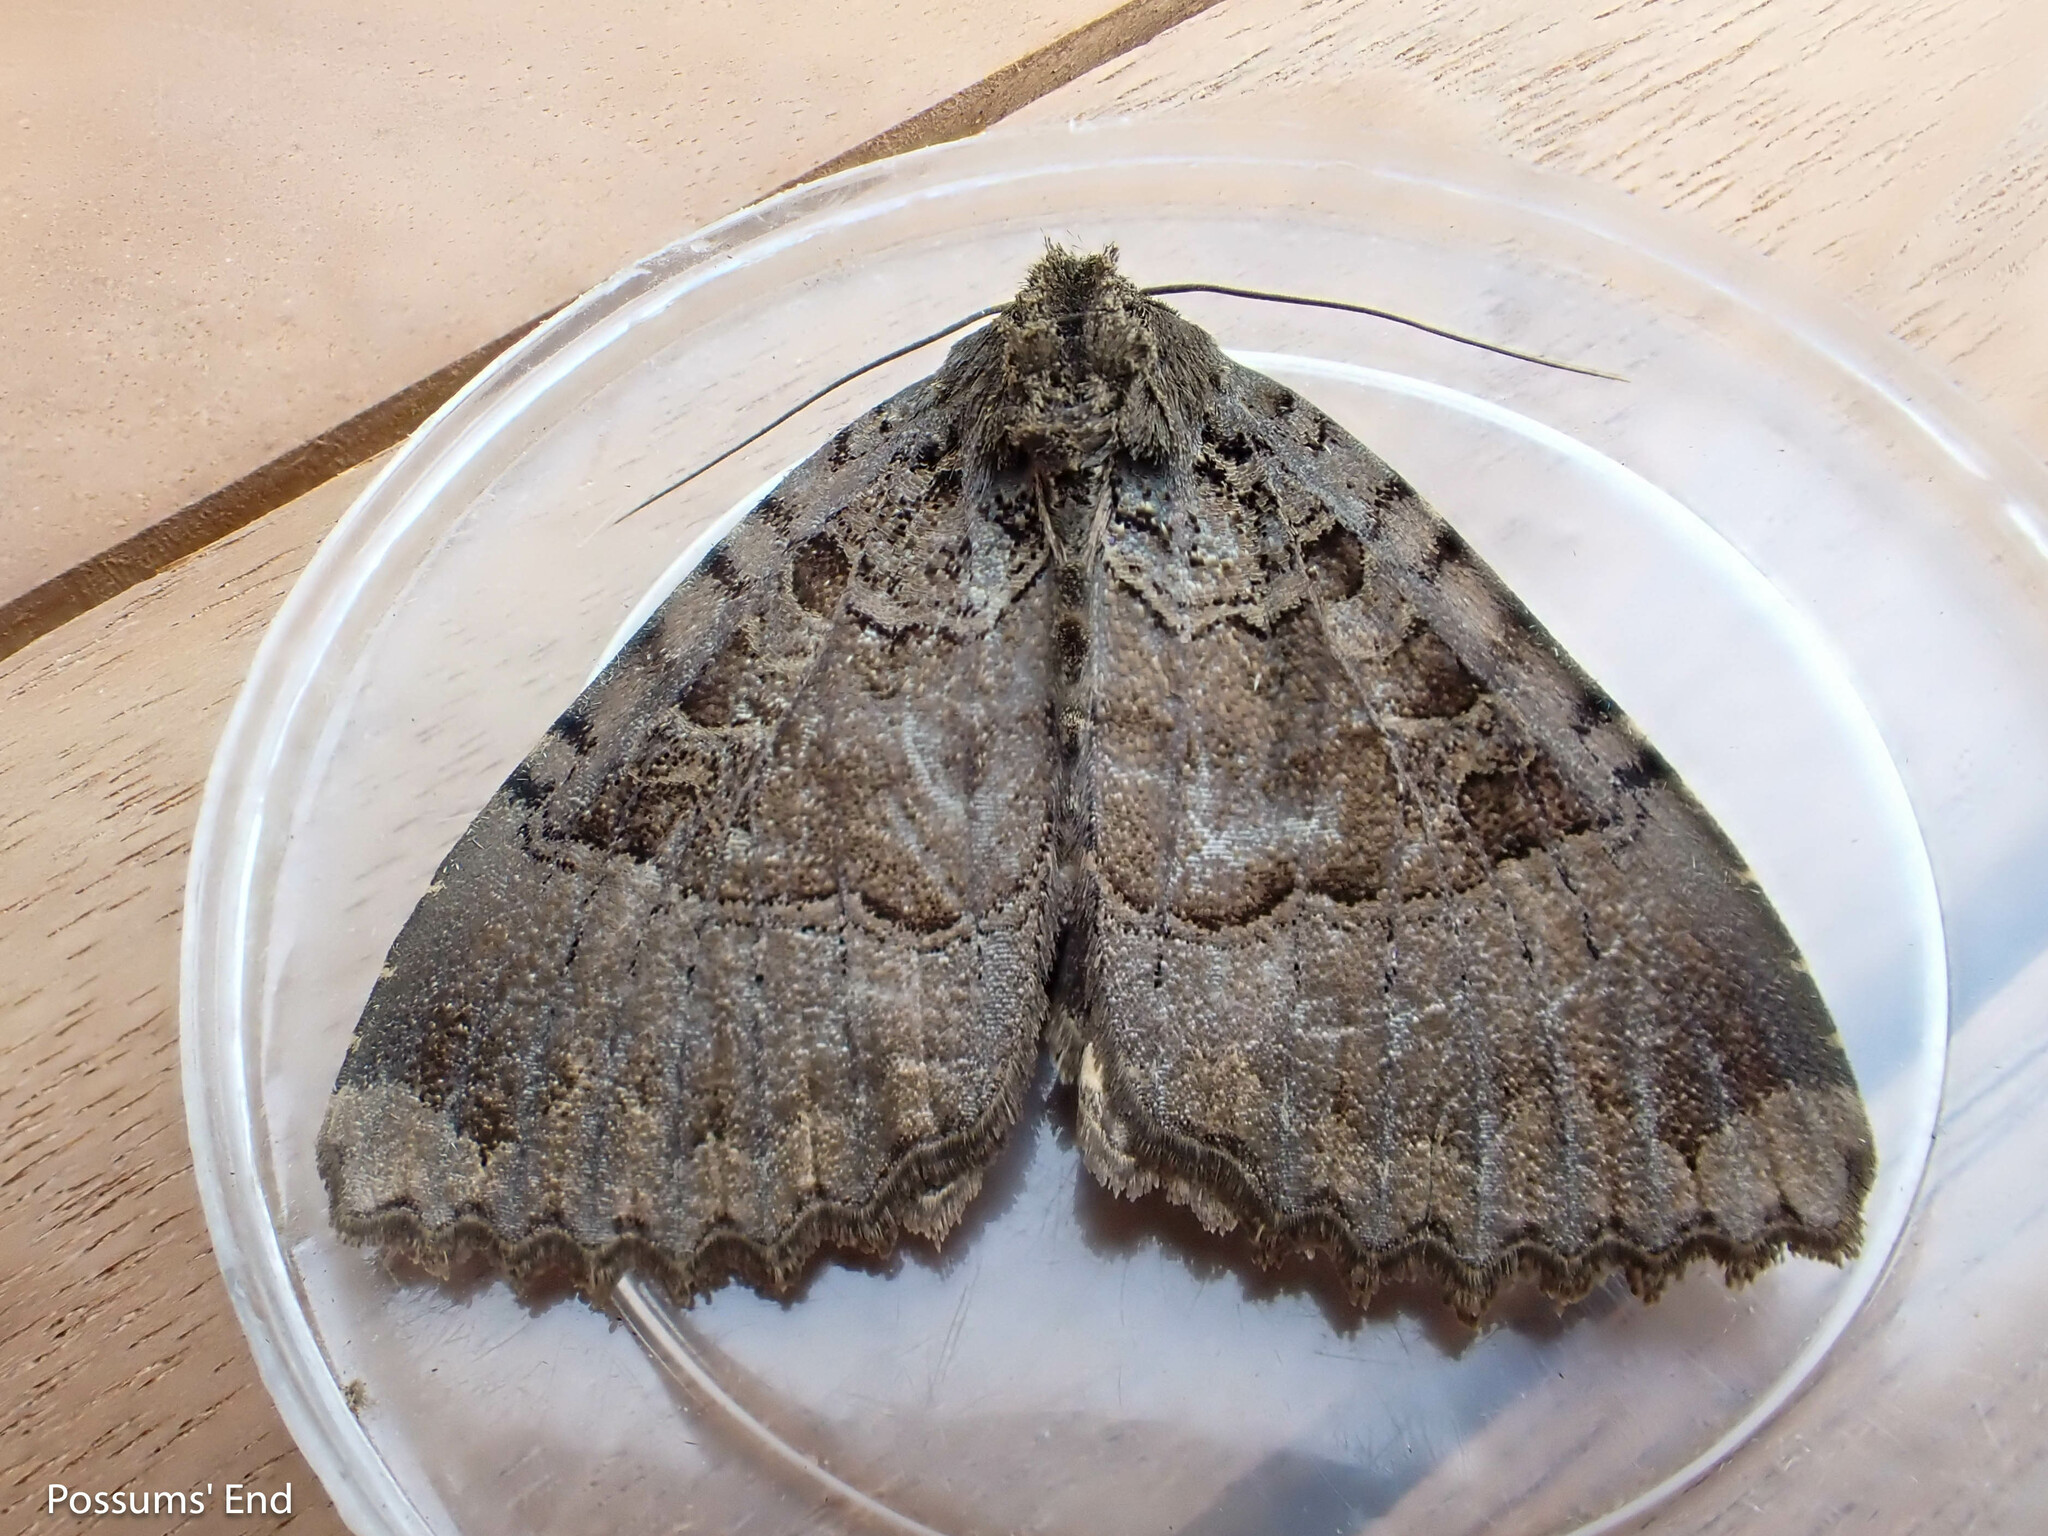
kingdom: Animalia
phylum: Arthropoda
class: Insecta
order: Lepidoptera
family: Noctuidae
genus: Mormo
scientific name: Mormo maura
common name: Old lady
